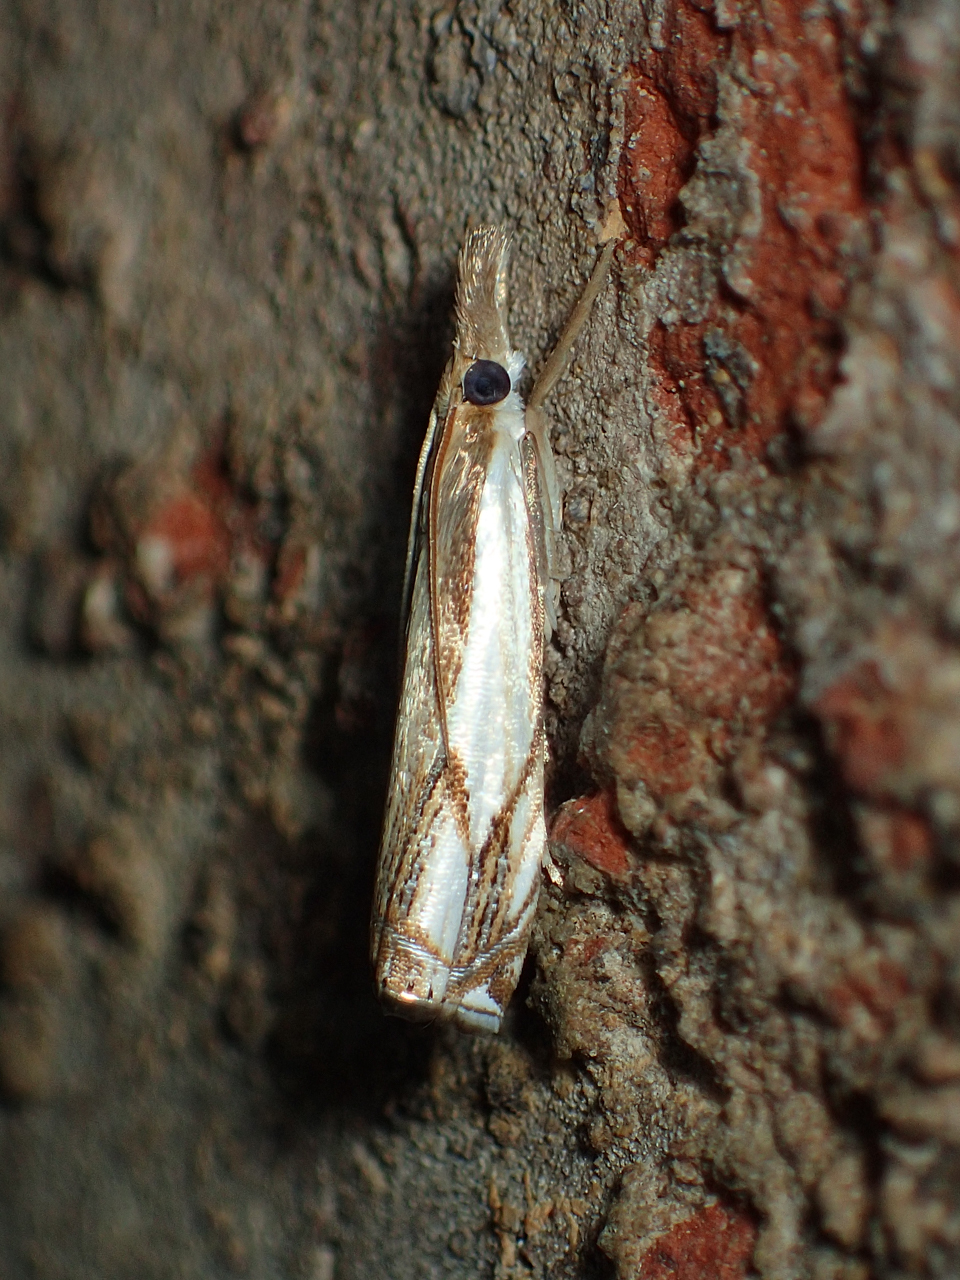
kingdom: Animalia
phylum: Arthropoda
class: Insecta
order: Lepidoptera
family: Crambidae
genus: Crambus
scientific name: Crambus agitatellus
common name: Double-banded grass-veneer
